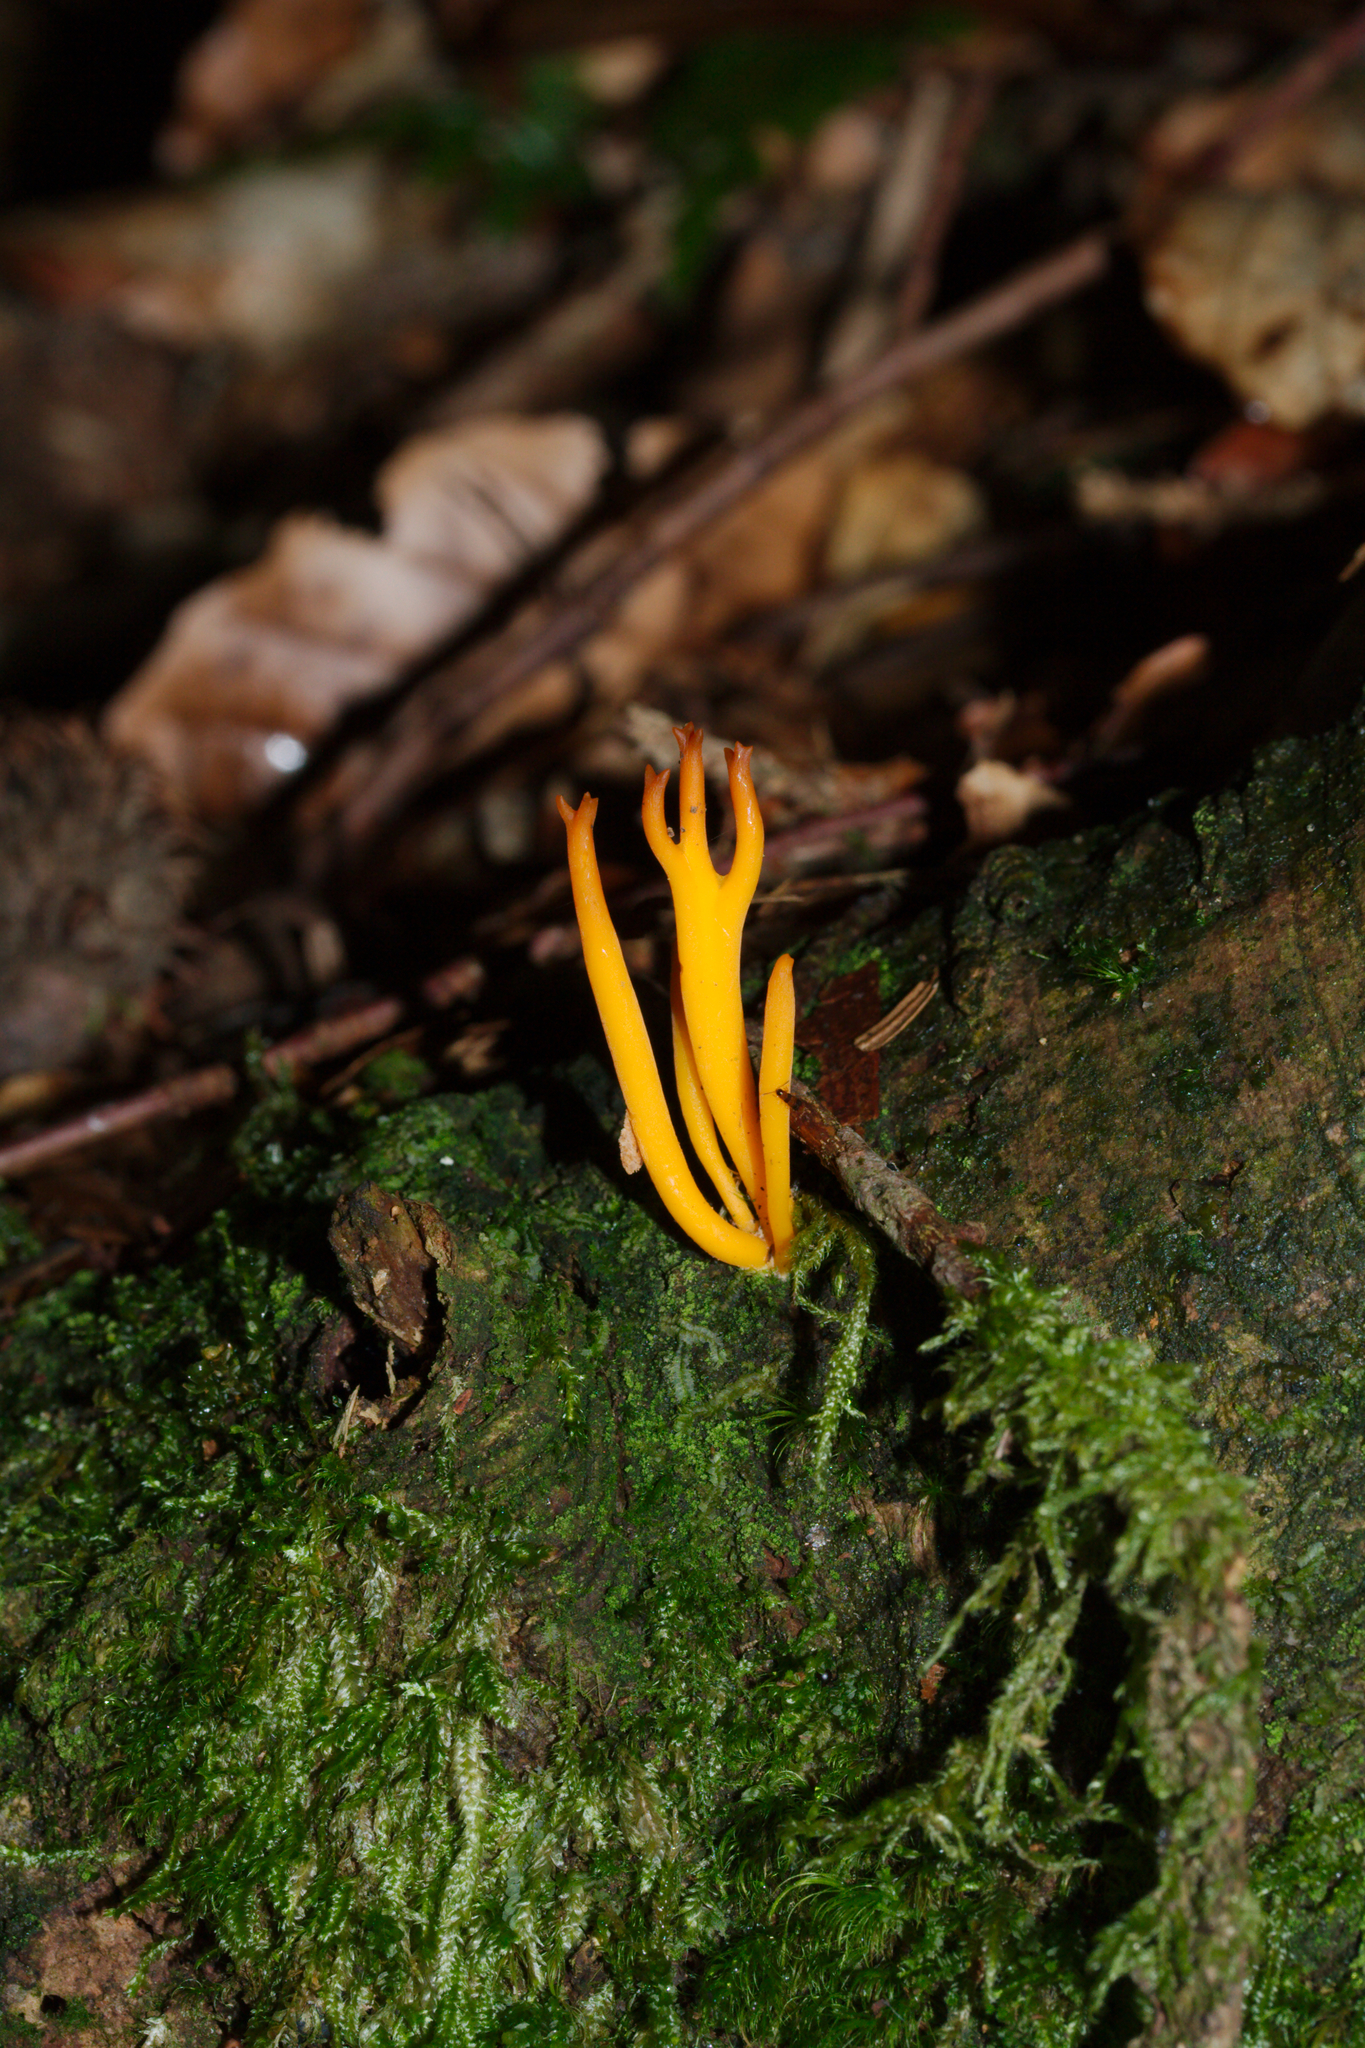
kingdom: Fungi
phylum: Basidiomycota
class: Dacrymycetes
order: Dacrymycetales
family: Dacrymycetaceae
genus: Calocera
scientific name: Calocera viscosa
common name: Yellow stagshorn
